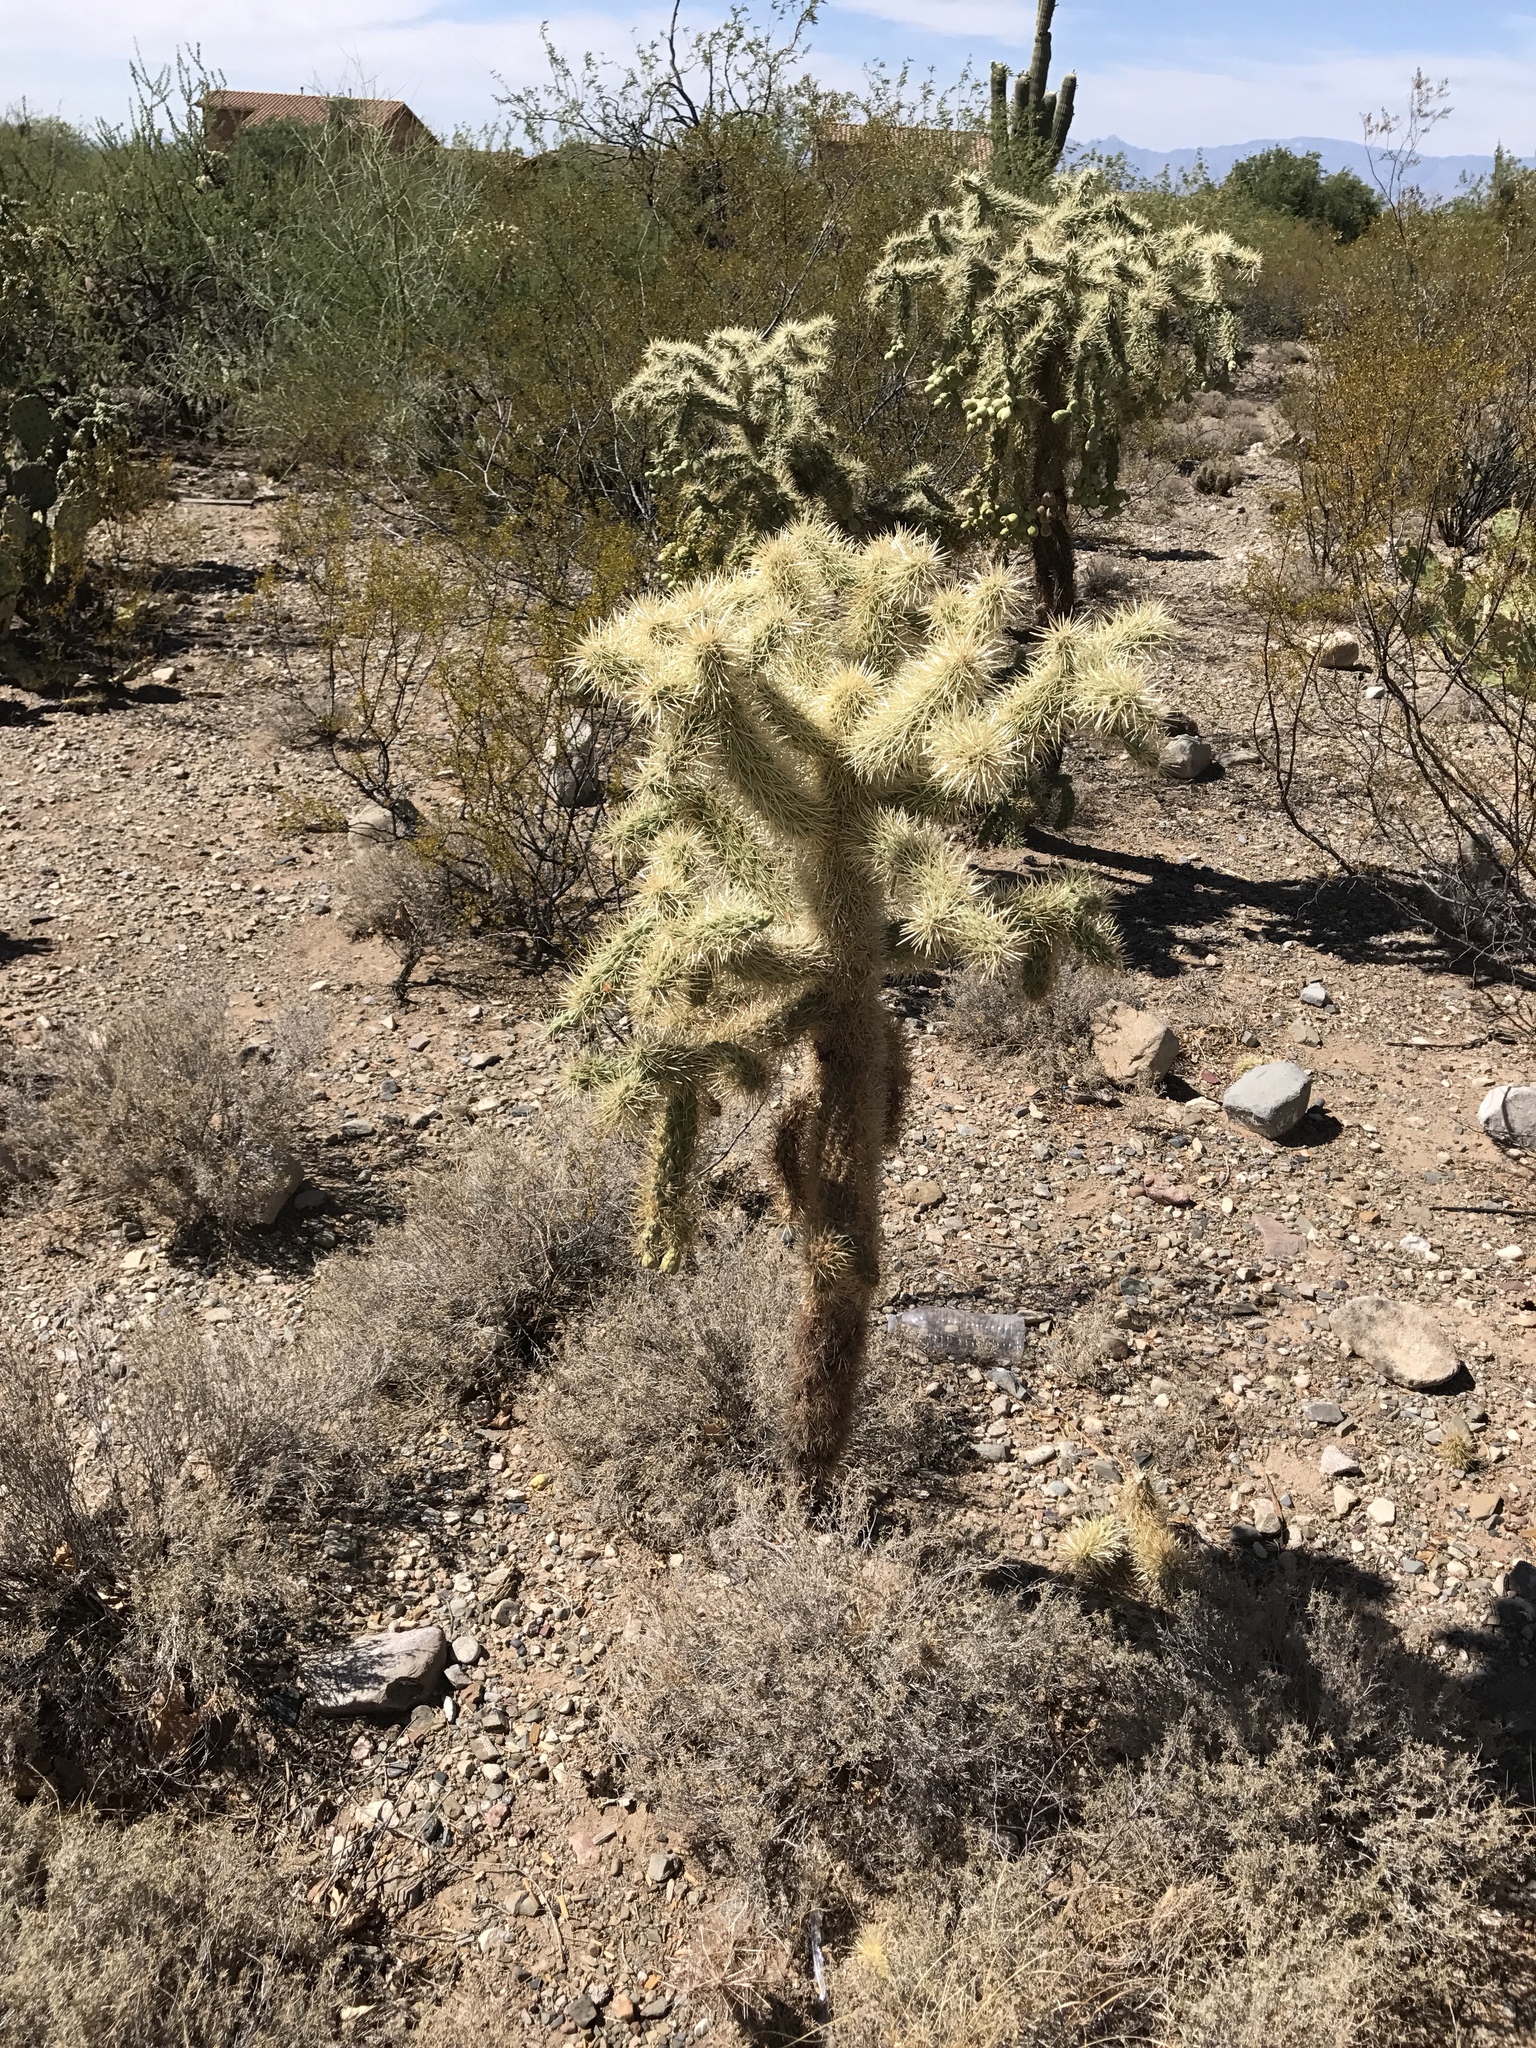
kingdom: Plantae
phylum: Tracheophyta
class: Magnoliopsida
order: Caryophyllales
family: Cactaceae
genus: Cylindropuntia
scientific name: Cylindropuntia fulgida
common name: Jumping cholla
